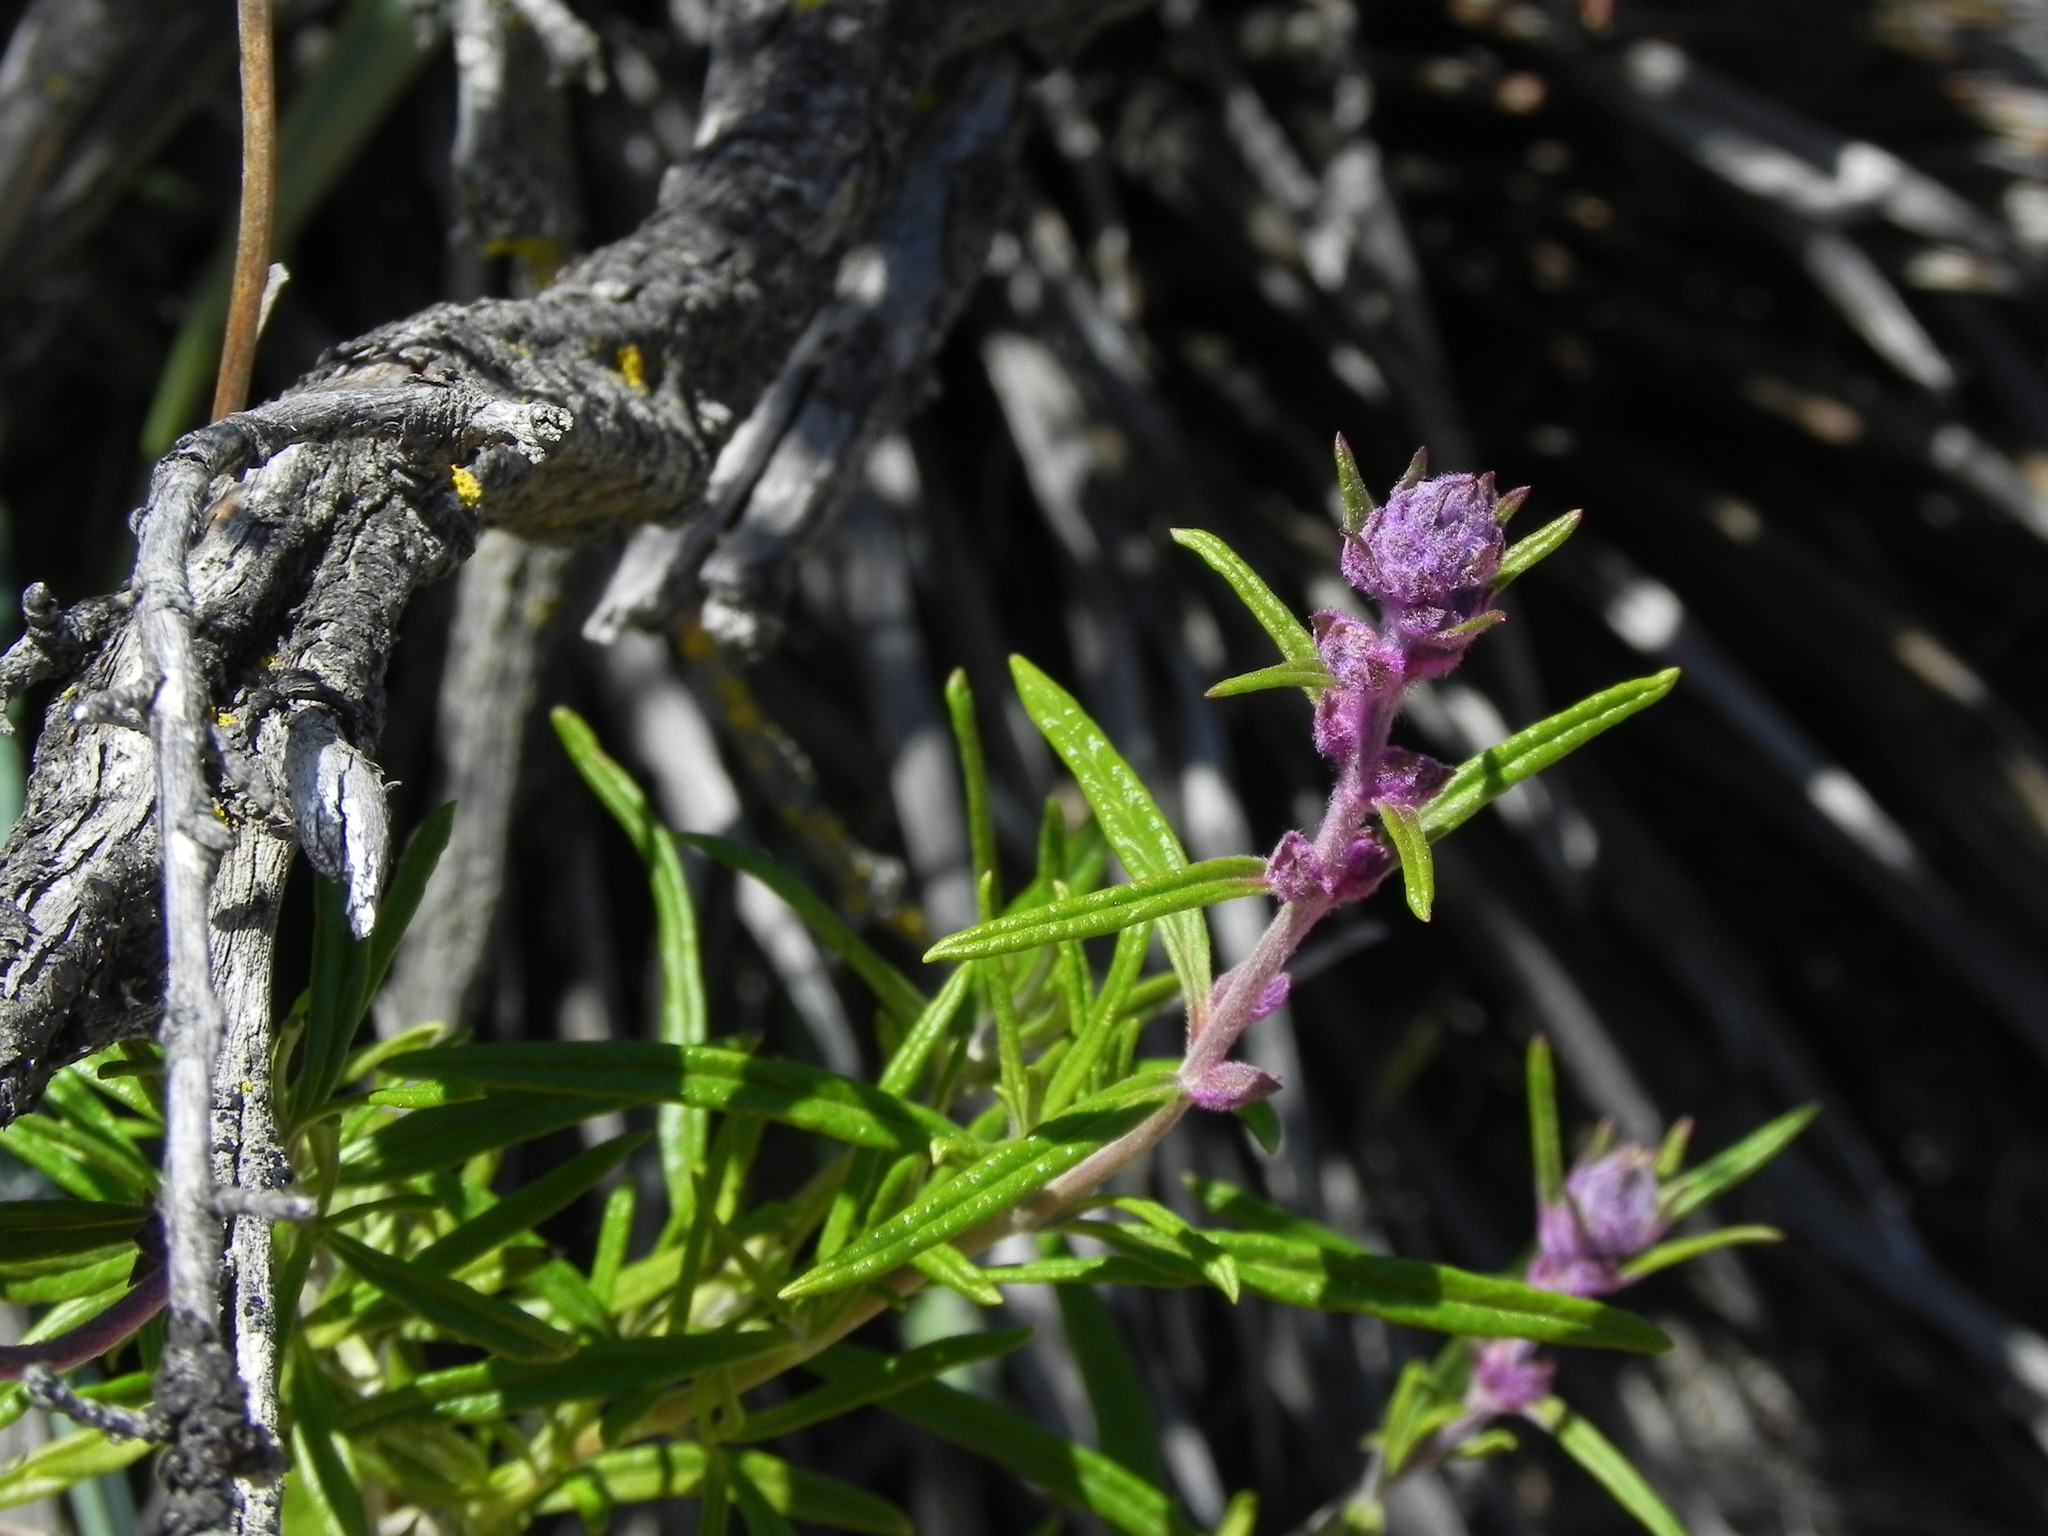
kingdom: Plantae
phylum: Tracheophyta
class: Magnoliopsida
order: Lamiales
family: Lamiaceae
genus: Trichostema
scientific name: Trichostema parishii
